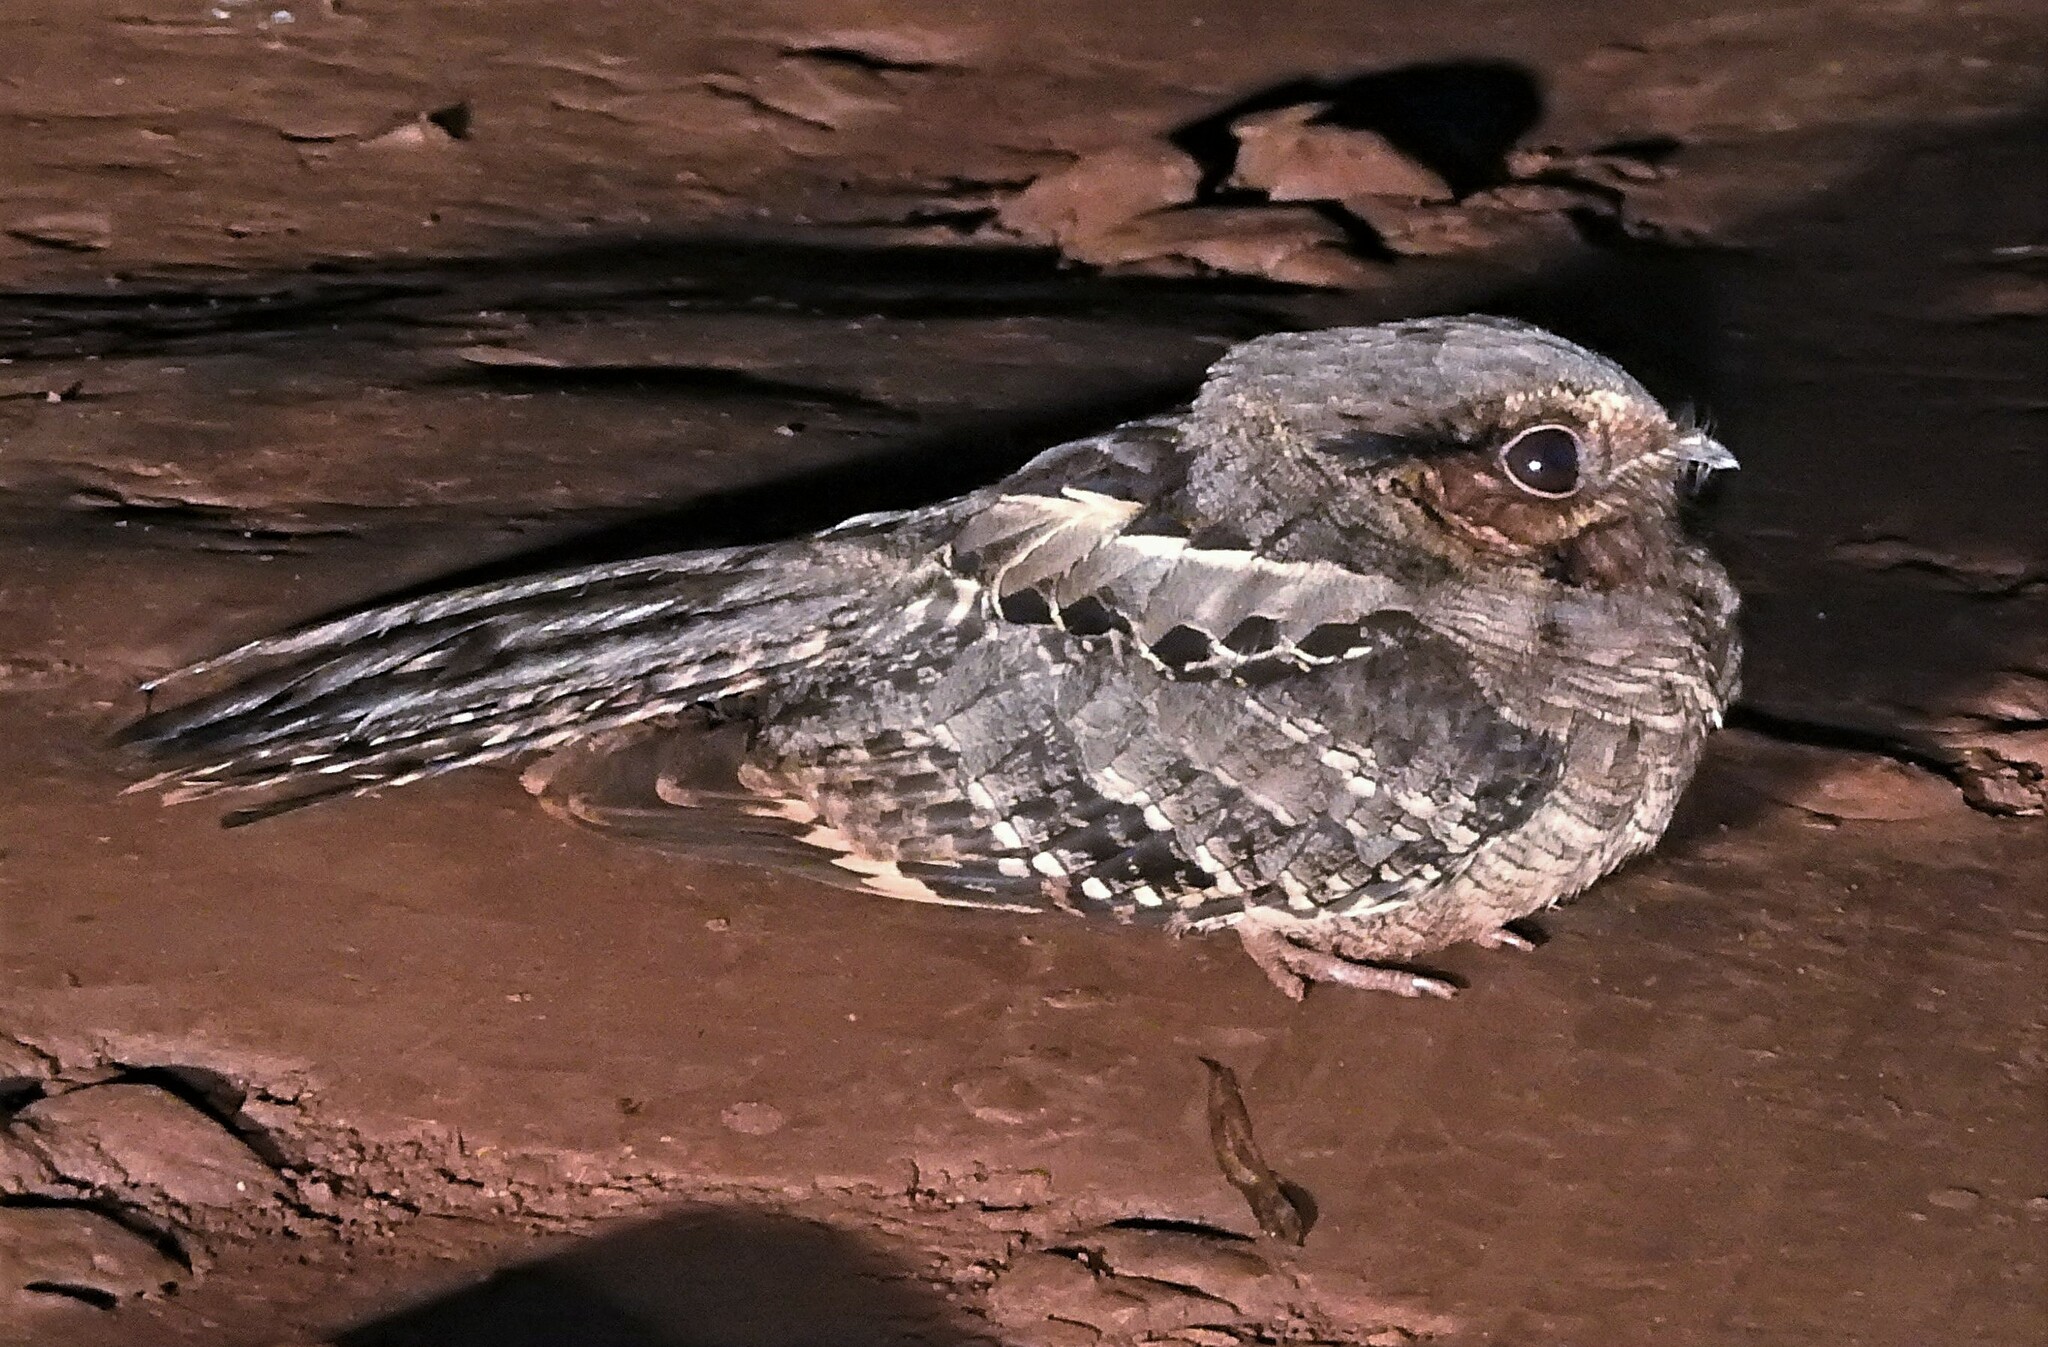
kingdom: Animalia
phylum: Chordata
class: Aves
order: Caprimulgiformes
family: Caprimulgidae
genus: Nyctidromus
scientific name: Nyctidromus albicollis
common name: Pauraque
